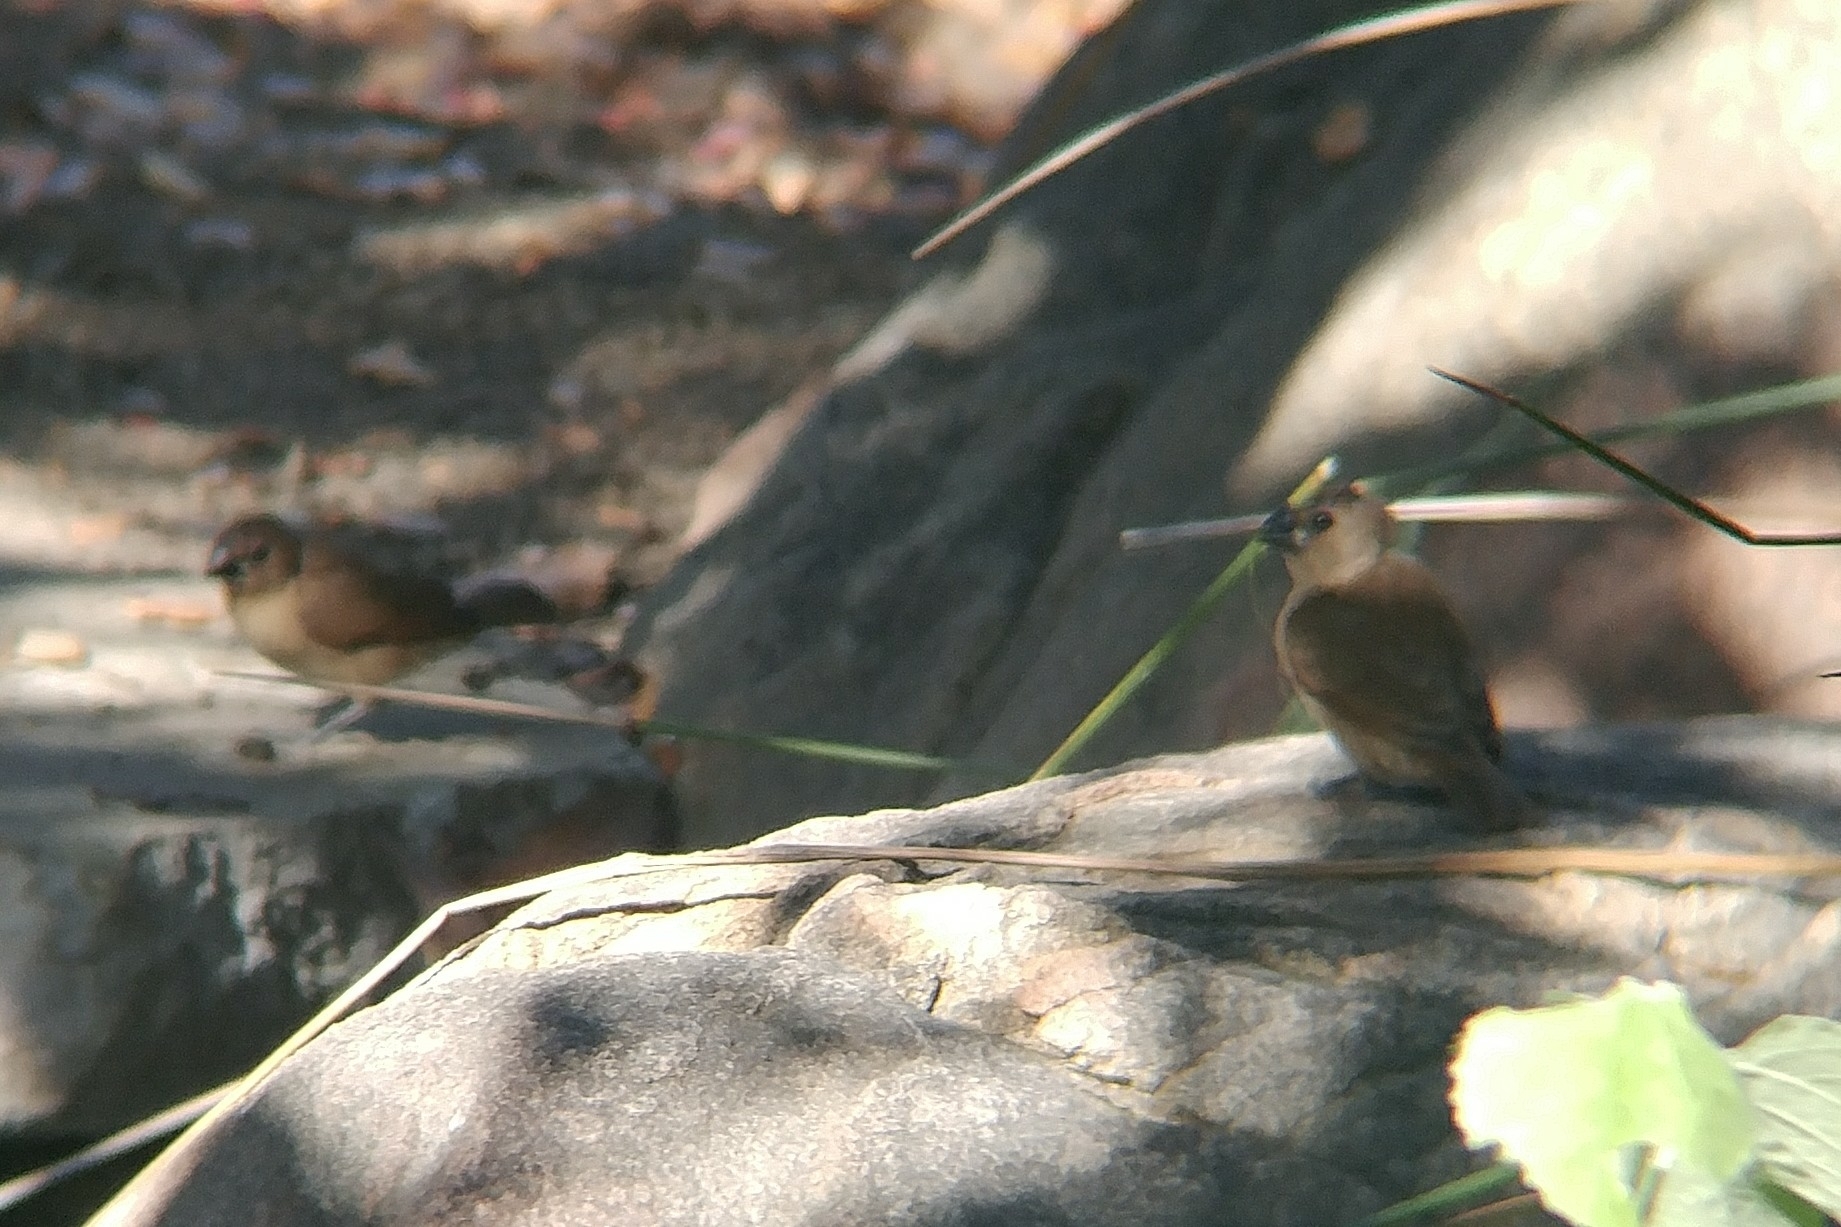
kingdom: Animalia
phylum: Chordata
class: Aves
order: Passeriformes
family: Estrildidae
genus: Lonchura
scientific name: Lonchura punctulata
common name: Scaly-breasted munia
